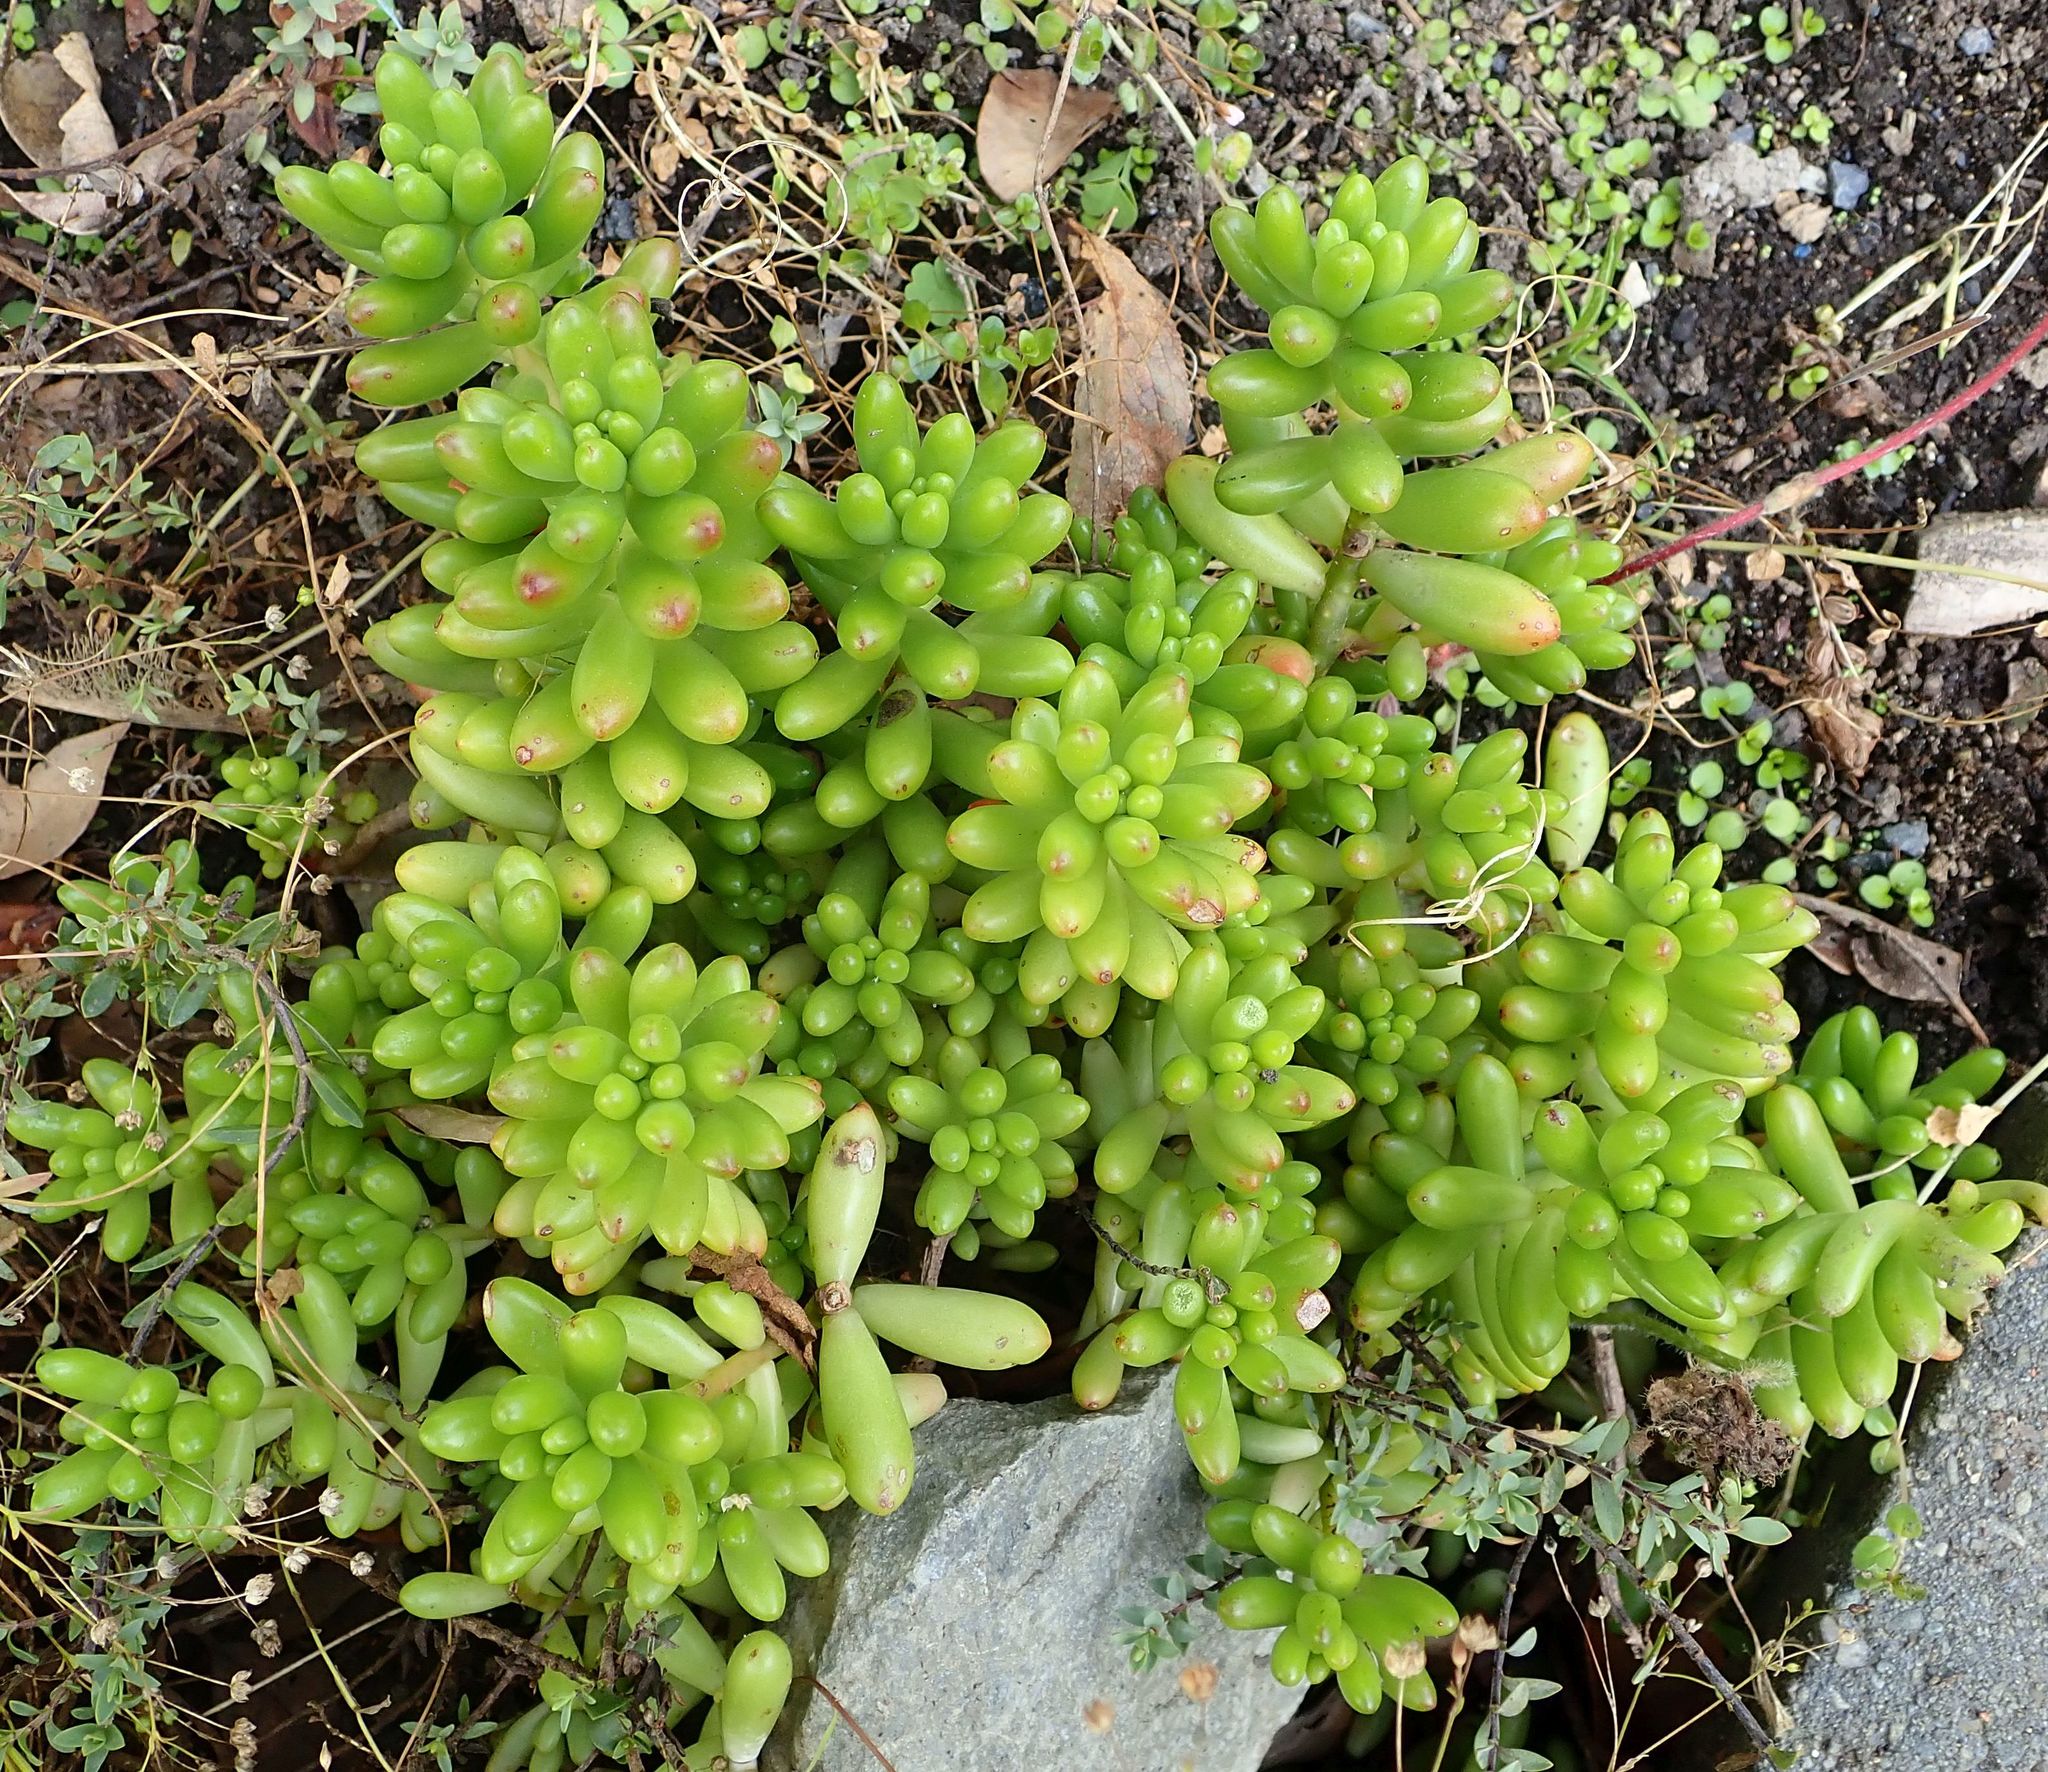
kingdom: Plantae
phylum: Tracheophyta
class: Magnoliopsida
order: Saxifragales
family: Crassulaceae
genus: Sedum
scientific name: Sedum rubrotinctum
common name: Christmas-cheer
